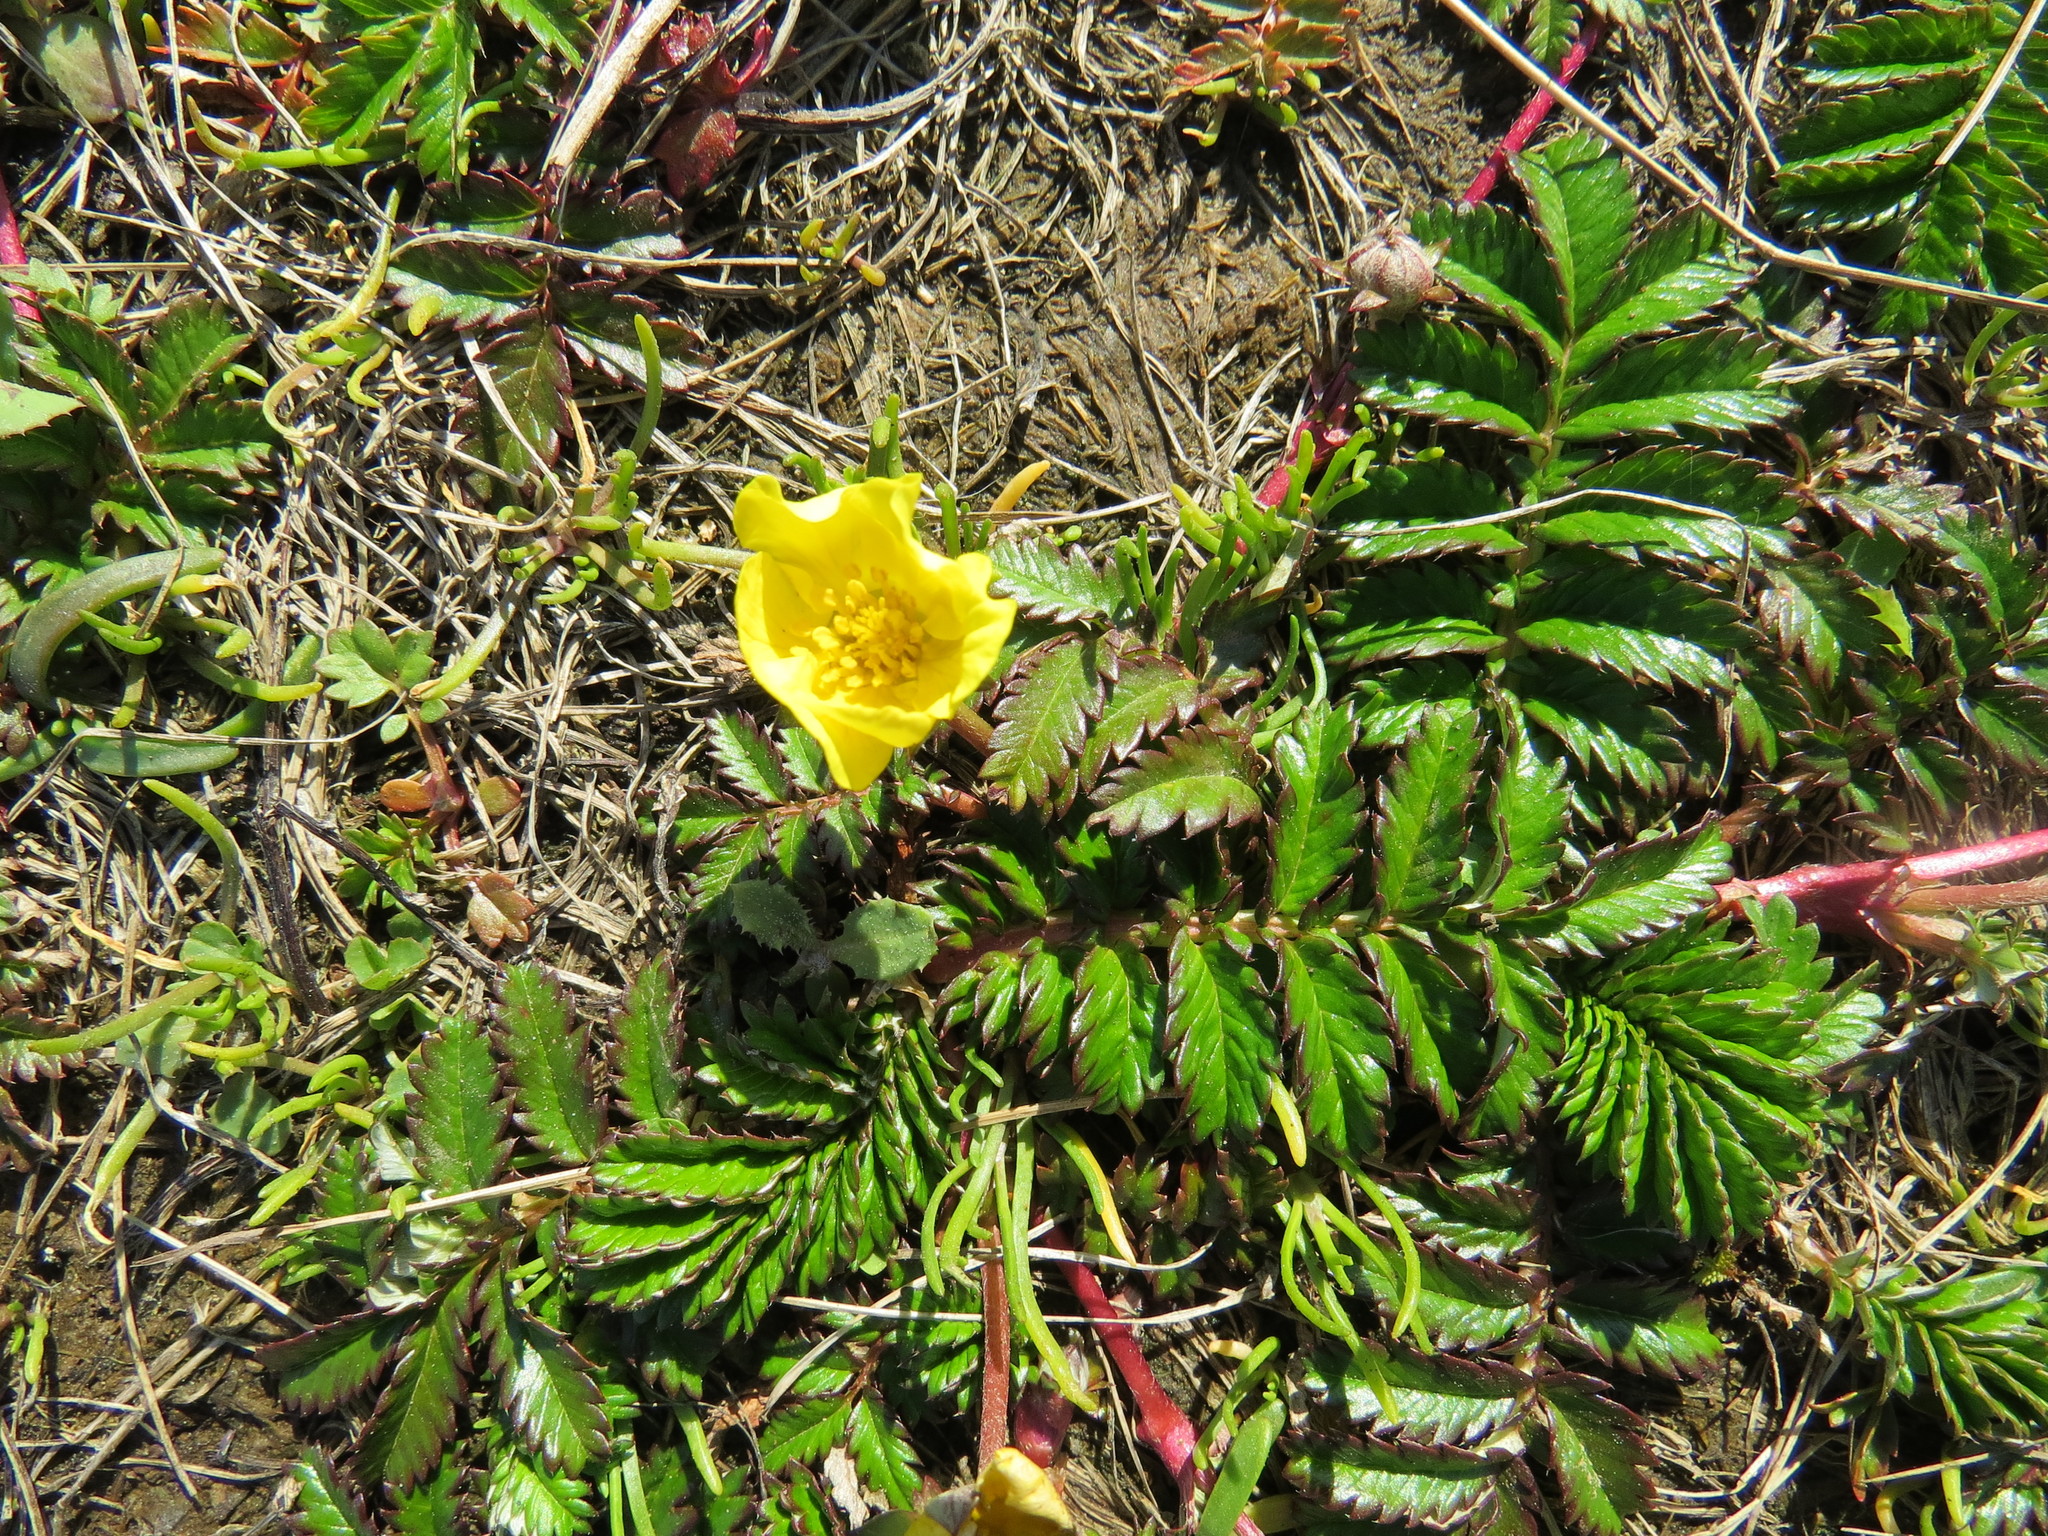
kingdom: Plantae
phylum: Tracheophyta
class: Magnoliopsida
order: Rosales
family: Rosaceae
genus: Argentina
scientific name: Argentina anserina
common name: Common silverweed
